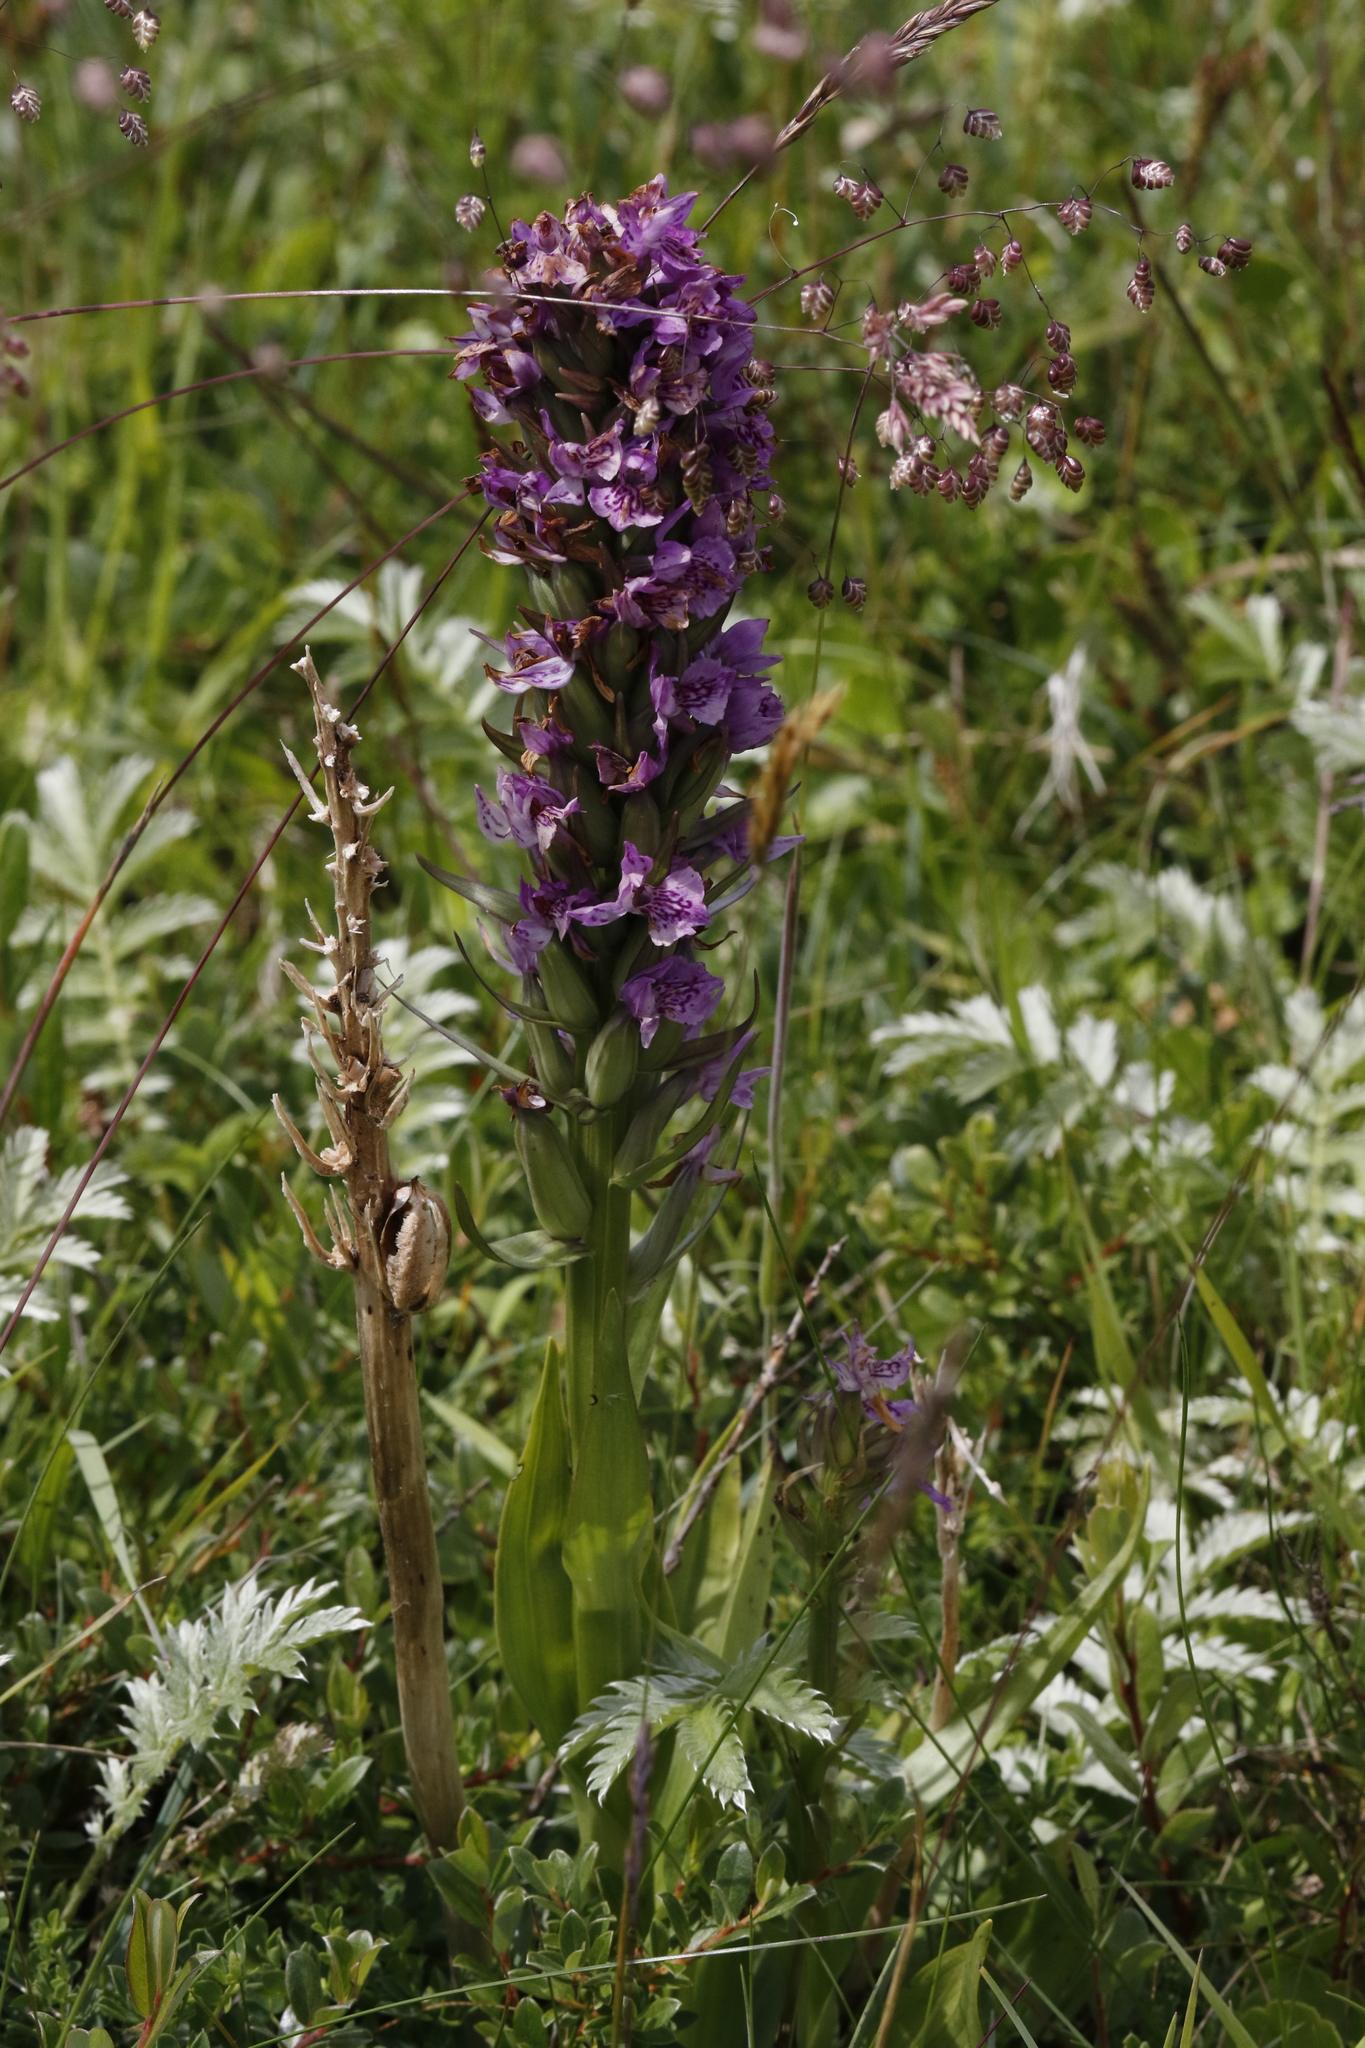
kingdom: Plantae
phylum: Tracheophyta
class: Liliopsida
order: Asparagales
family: Orchidaceae
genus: Dactylorhiza
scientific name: Dactylorhiza incarnata
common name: Early marsh-orchid
